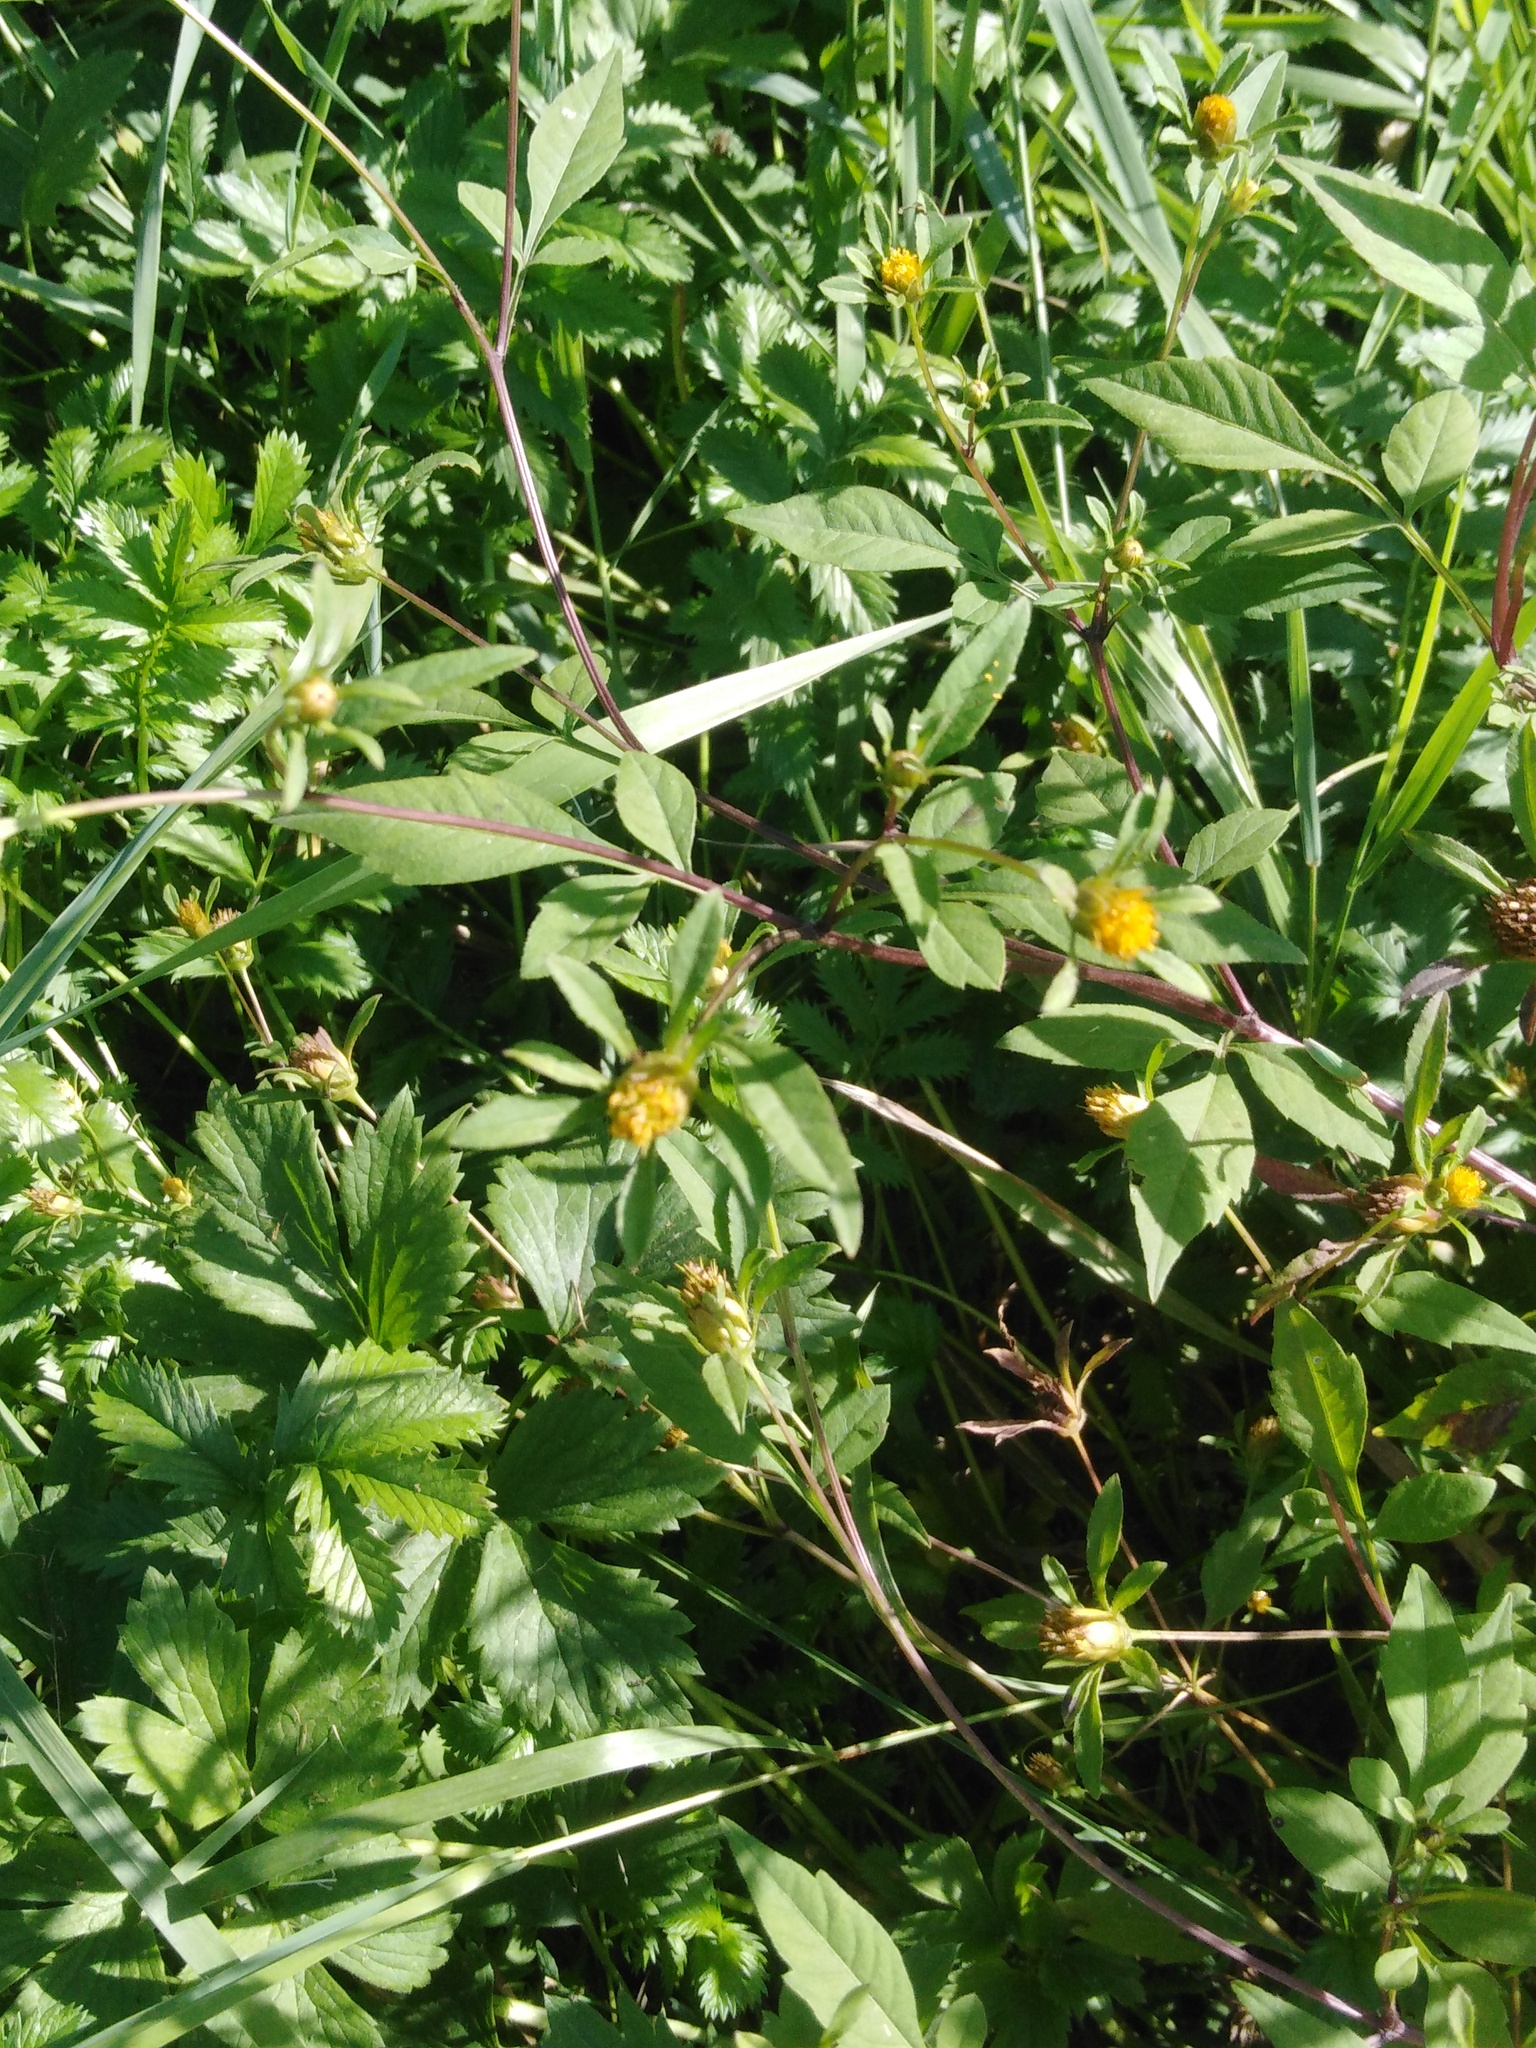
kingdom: Plantae
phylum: Tracheophyta
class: Magnoliopsida
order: Asterales
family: Asteraceae
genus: Bidens
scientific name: Bidens frondosa
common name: Beggarticks
